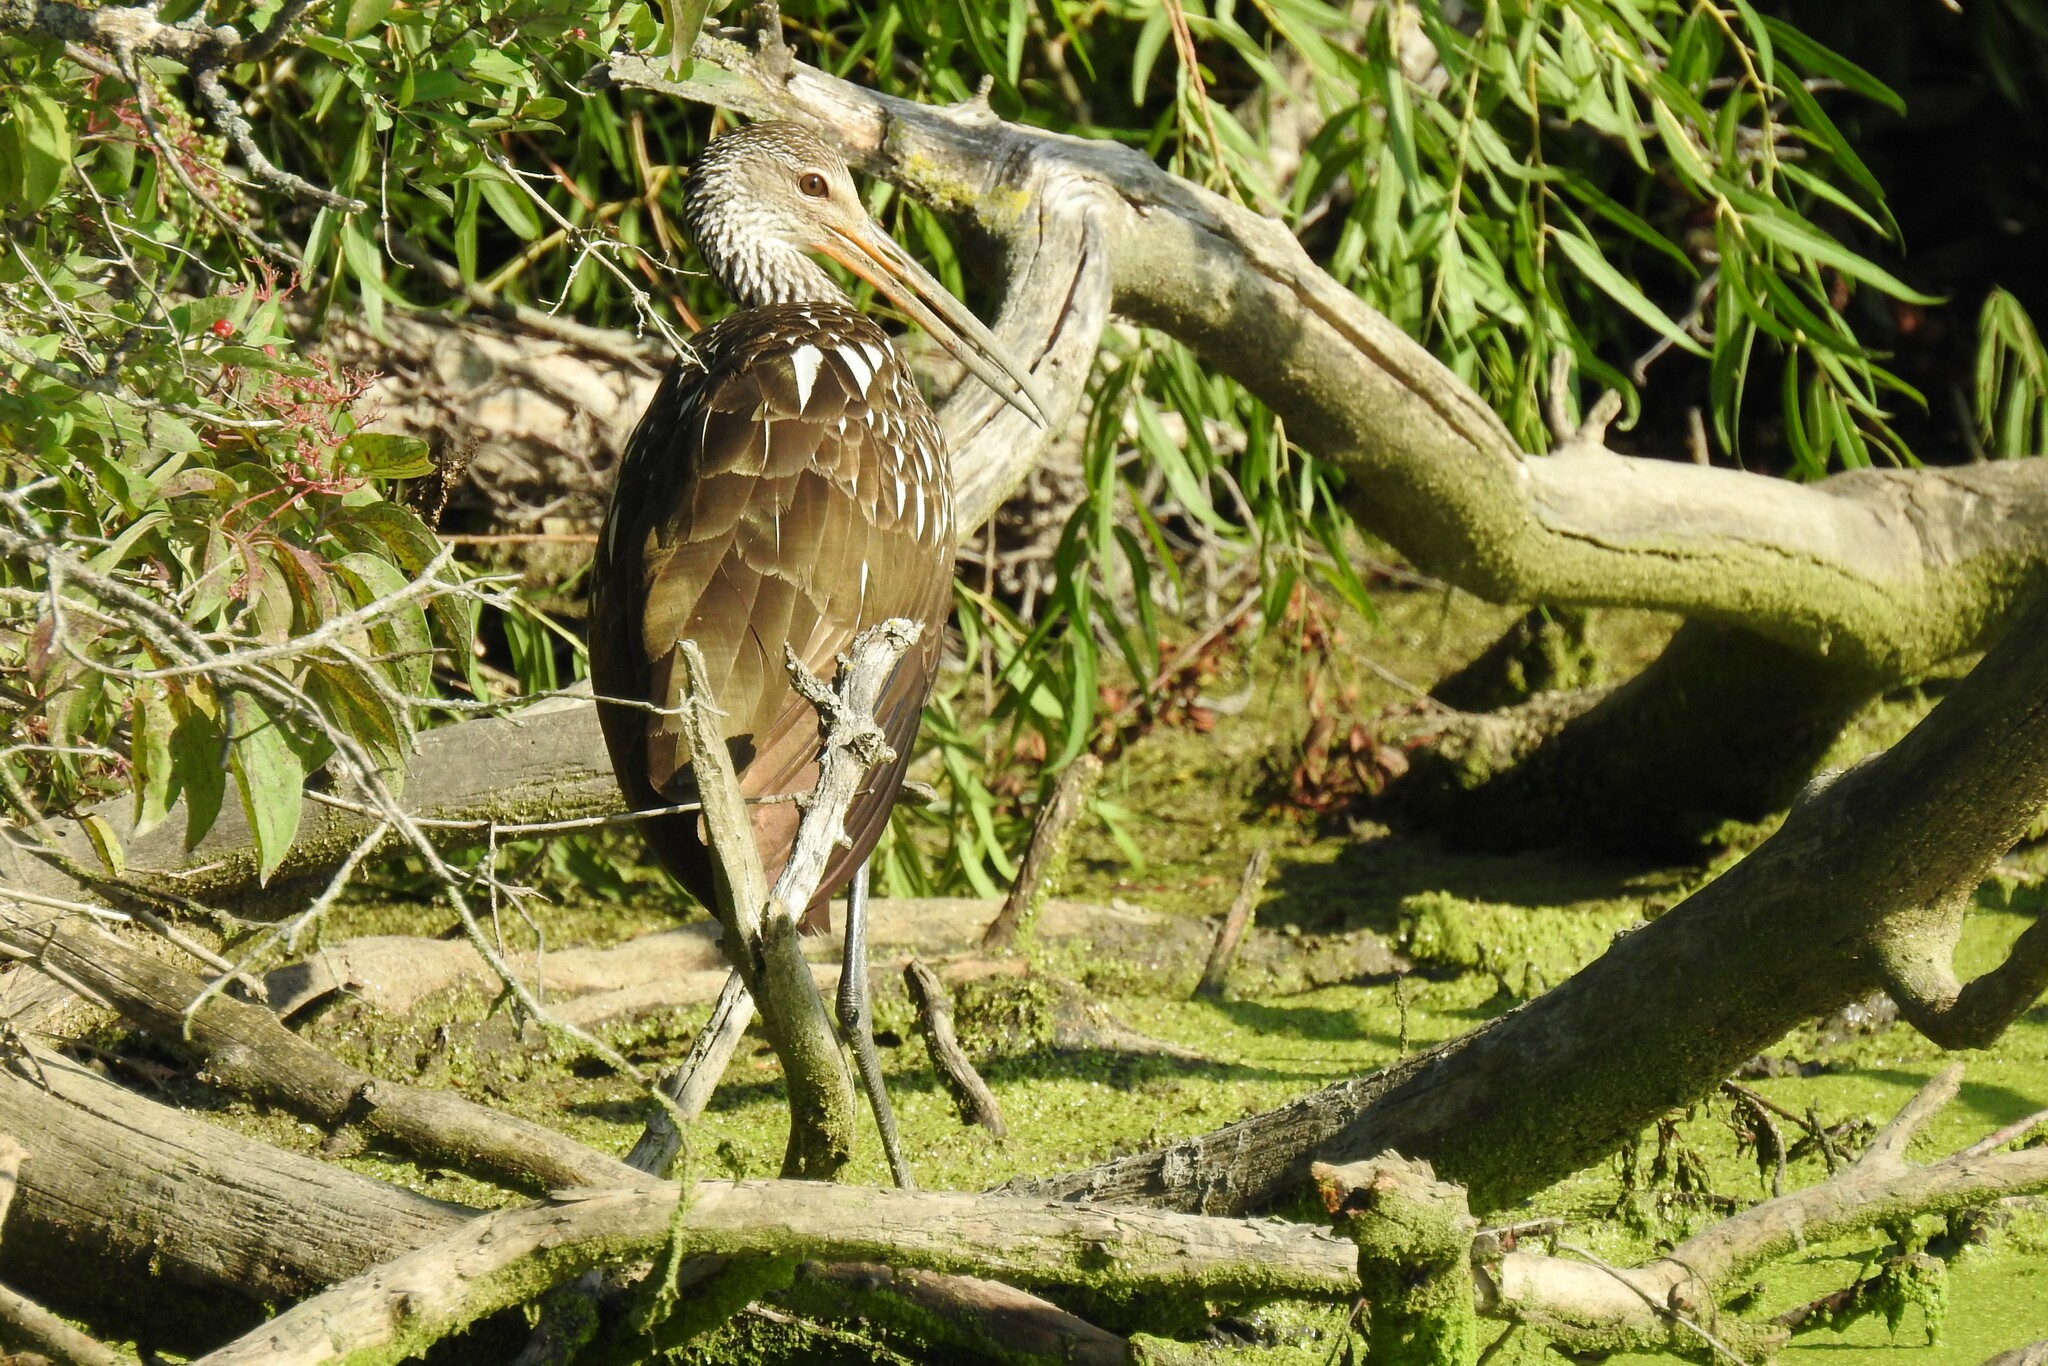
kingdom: Animalia
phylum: Chordata
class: Aves
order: Gruiformes
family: Aramidae
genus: Aramus
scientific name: Aramus guarauna
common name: Limpkin
